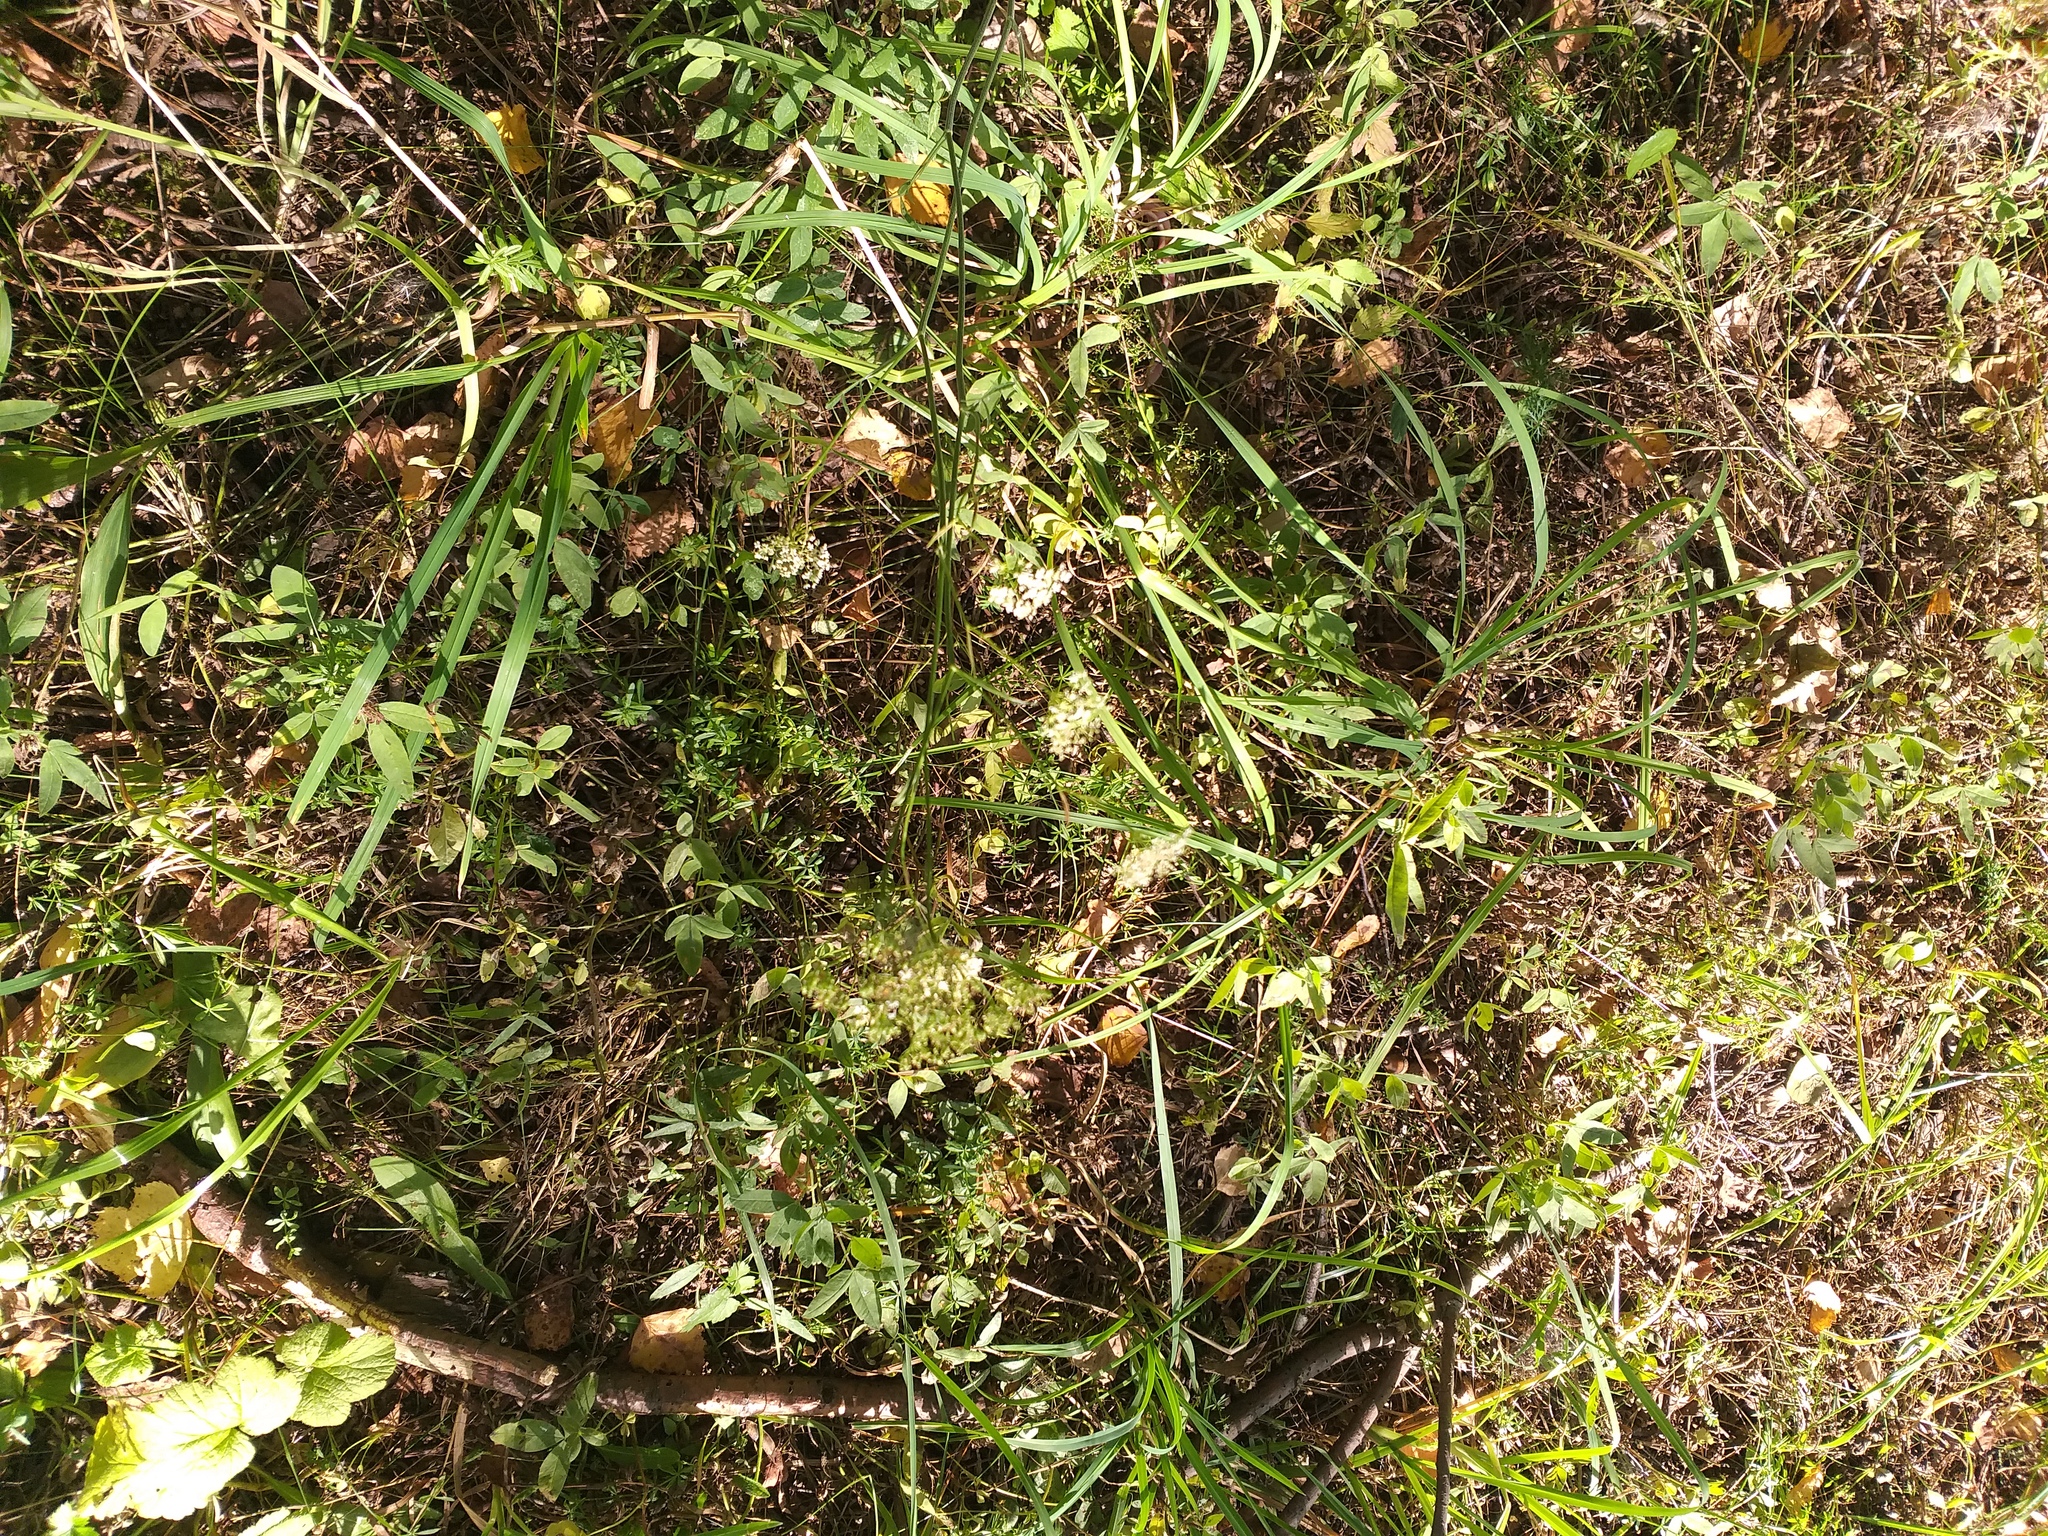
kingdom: Plantae
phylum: Tracheophyta
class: Magnoliopsida
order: Apiales
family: Apiaceae
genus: Pimpinella
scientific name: Pimpinella saxifraga
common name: Burnet-saxifrage
